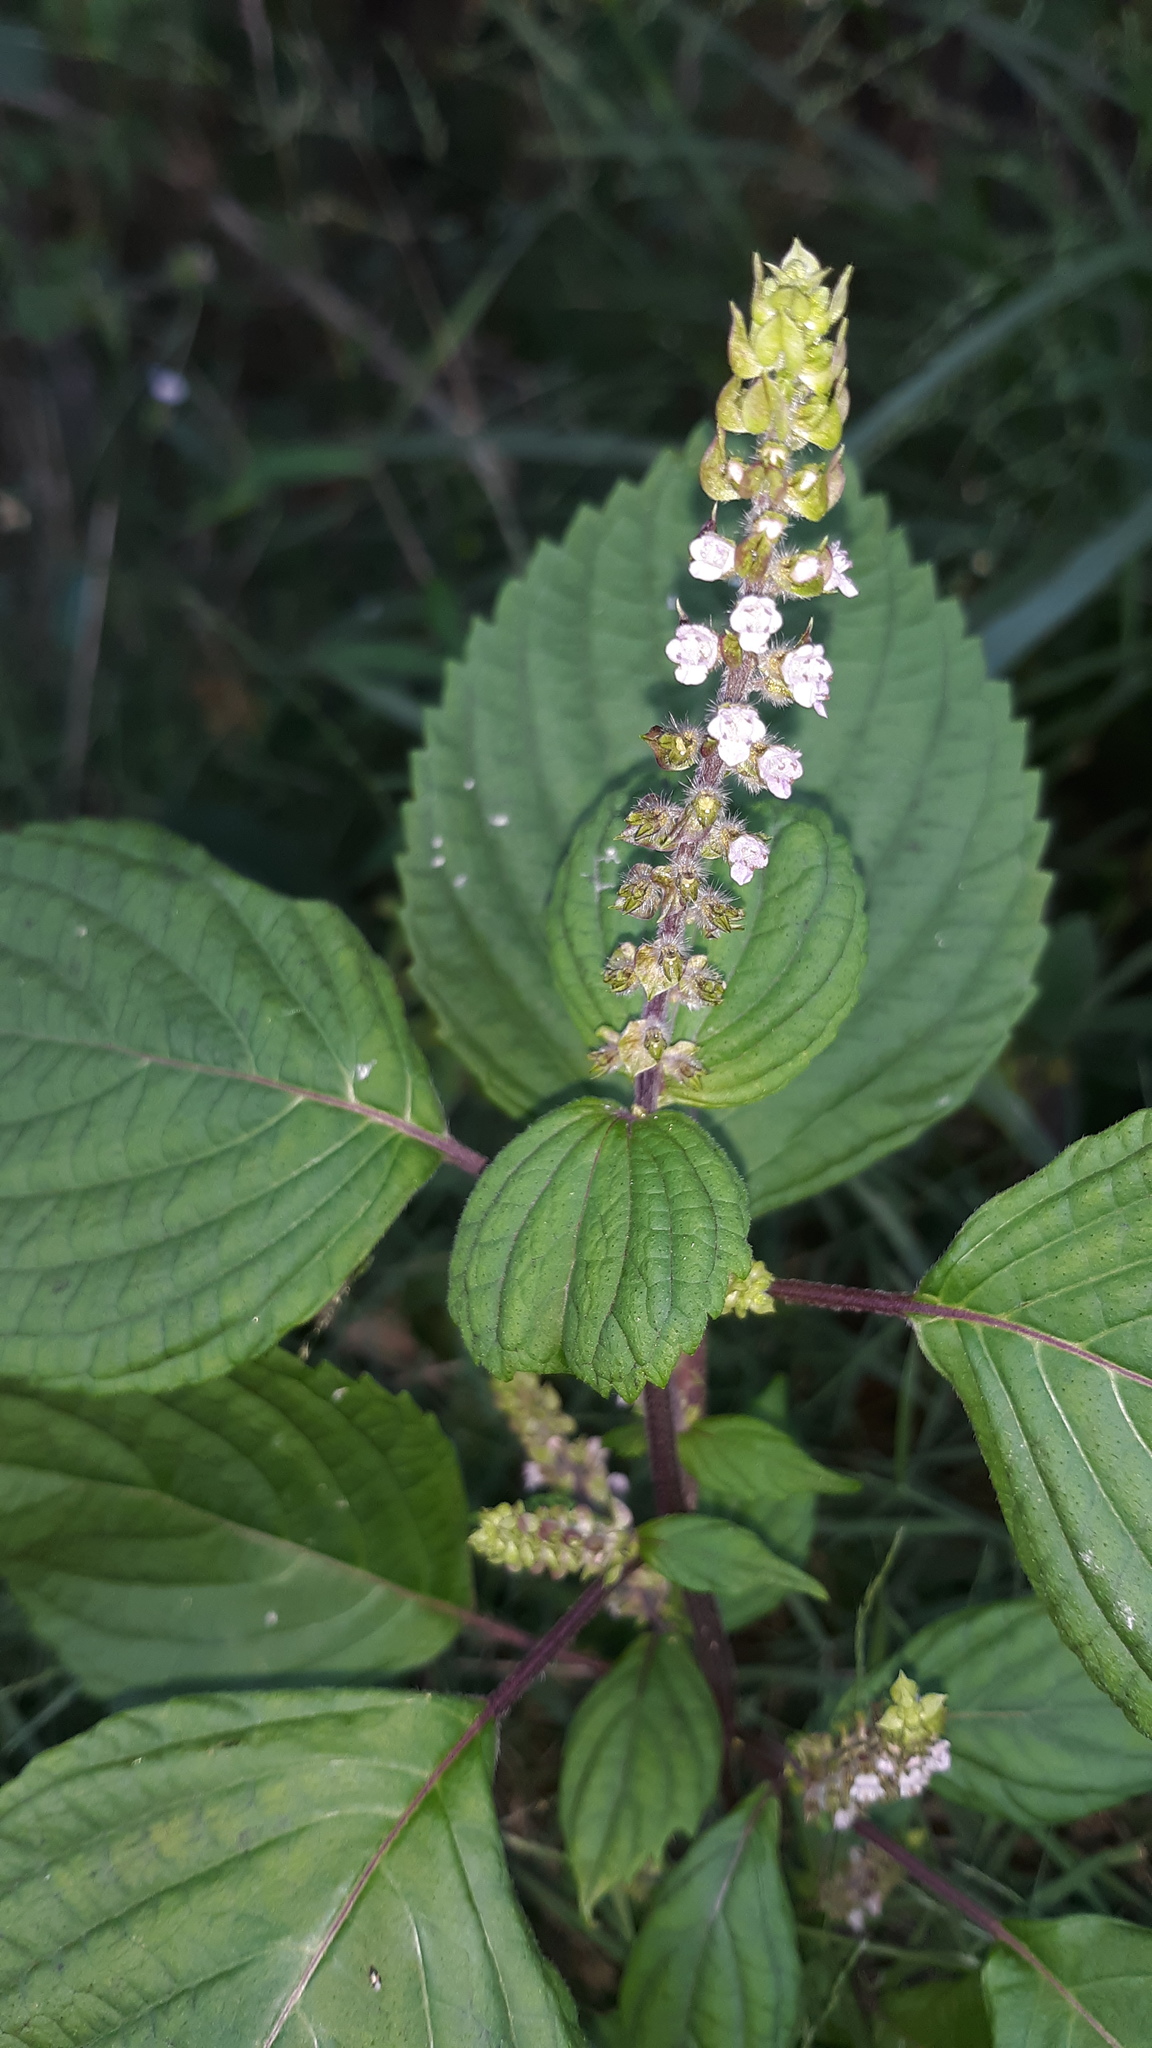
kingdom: Plantae
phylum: Tracheophyta
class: Magnoliopsida
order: Lamiales
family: Lamiaceae
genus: Perilla
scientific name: Perilla frutescens
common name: Perilla
